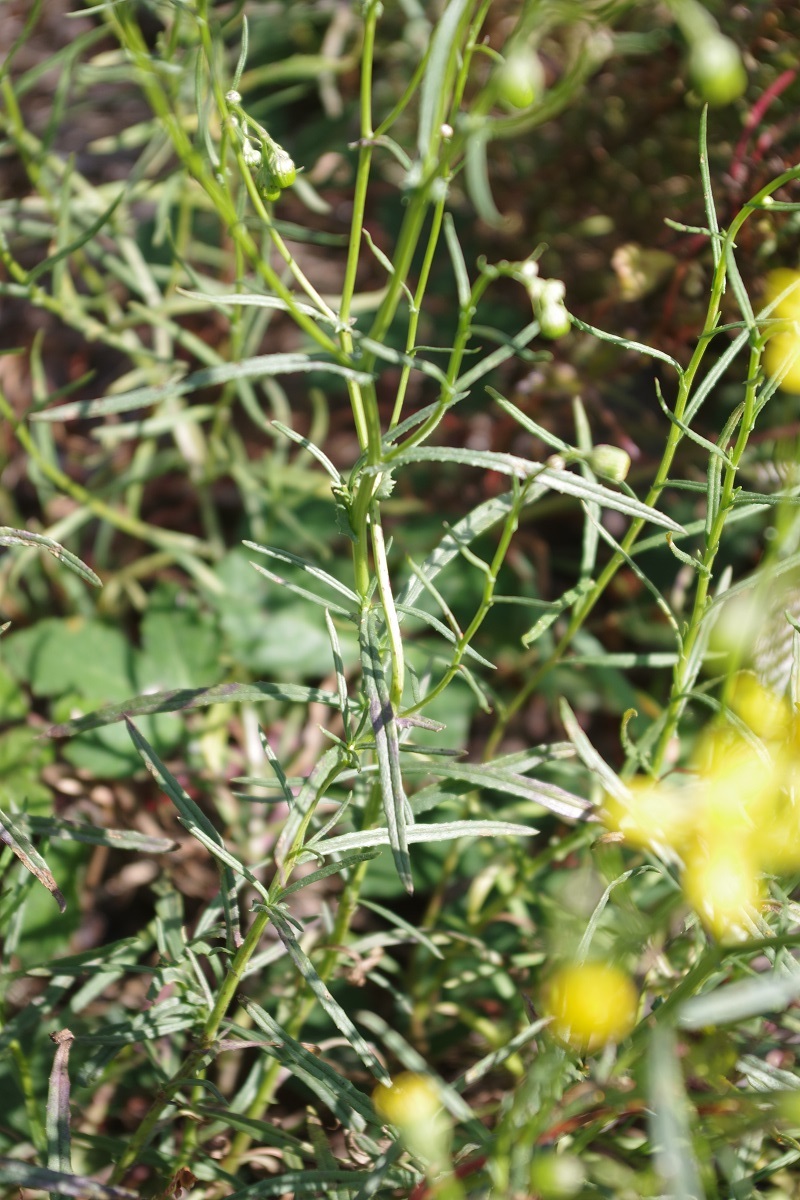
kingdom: Plantae
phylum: Tracheophyta
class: Magnoliopsida
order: Asterales
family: Asteraceae
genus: Senecio
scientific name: Senecio inaequidens
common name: Narrow-leaved ragwort
